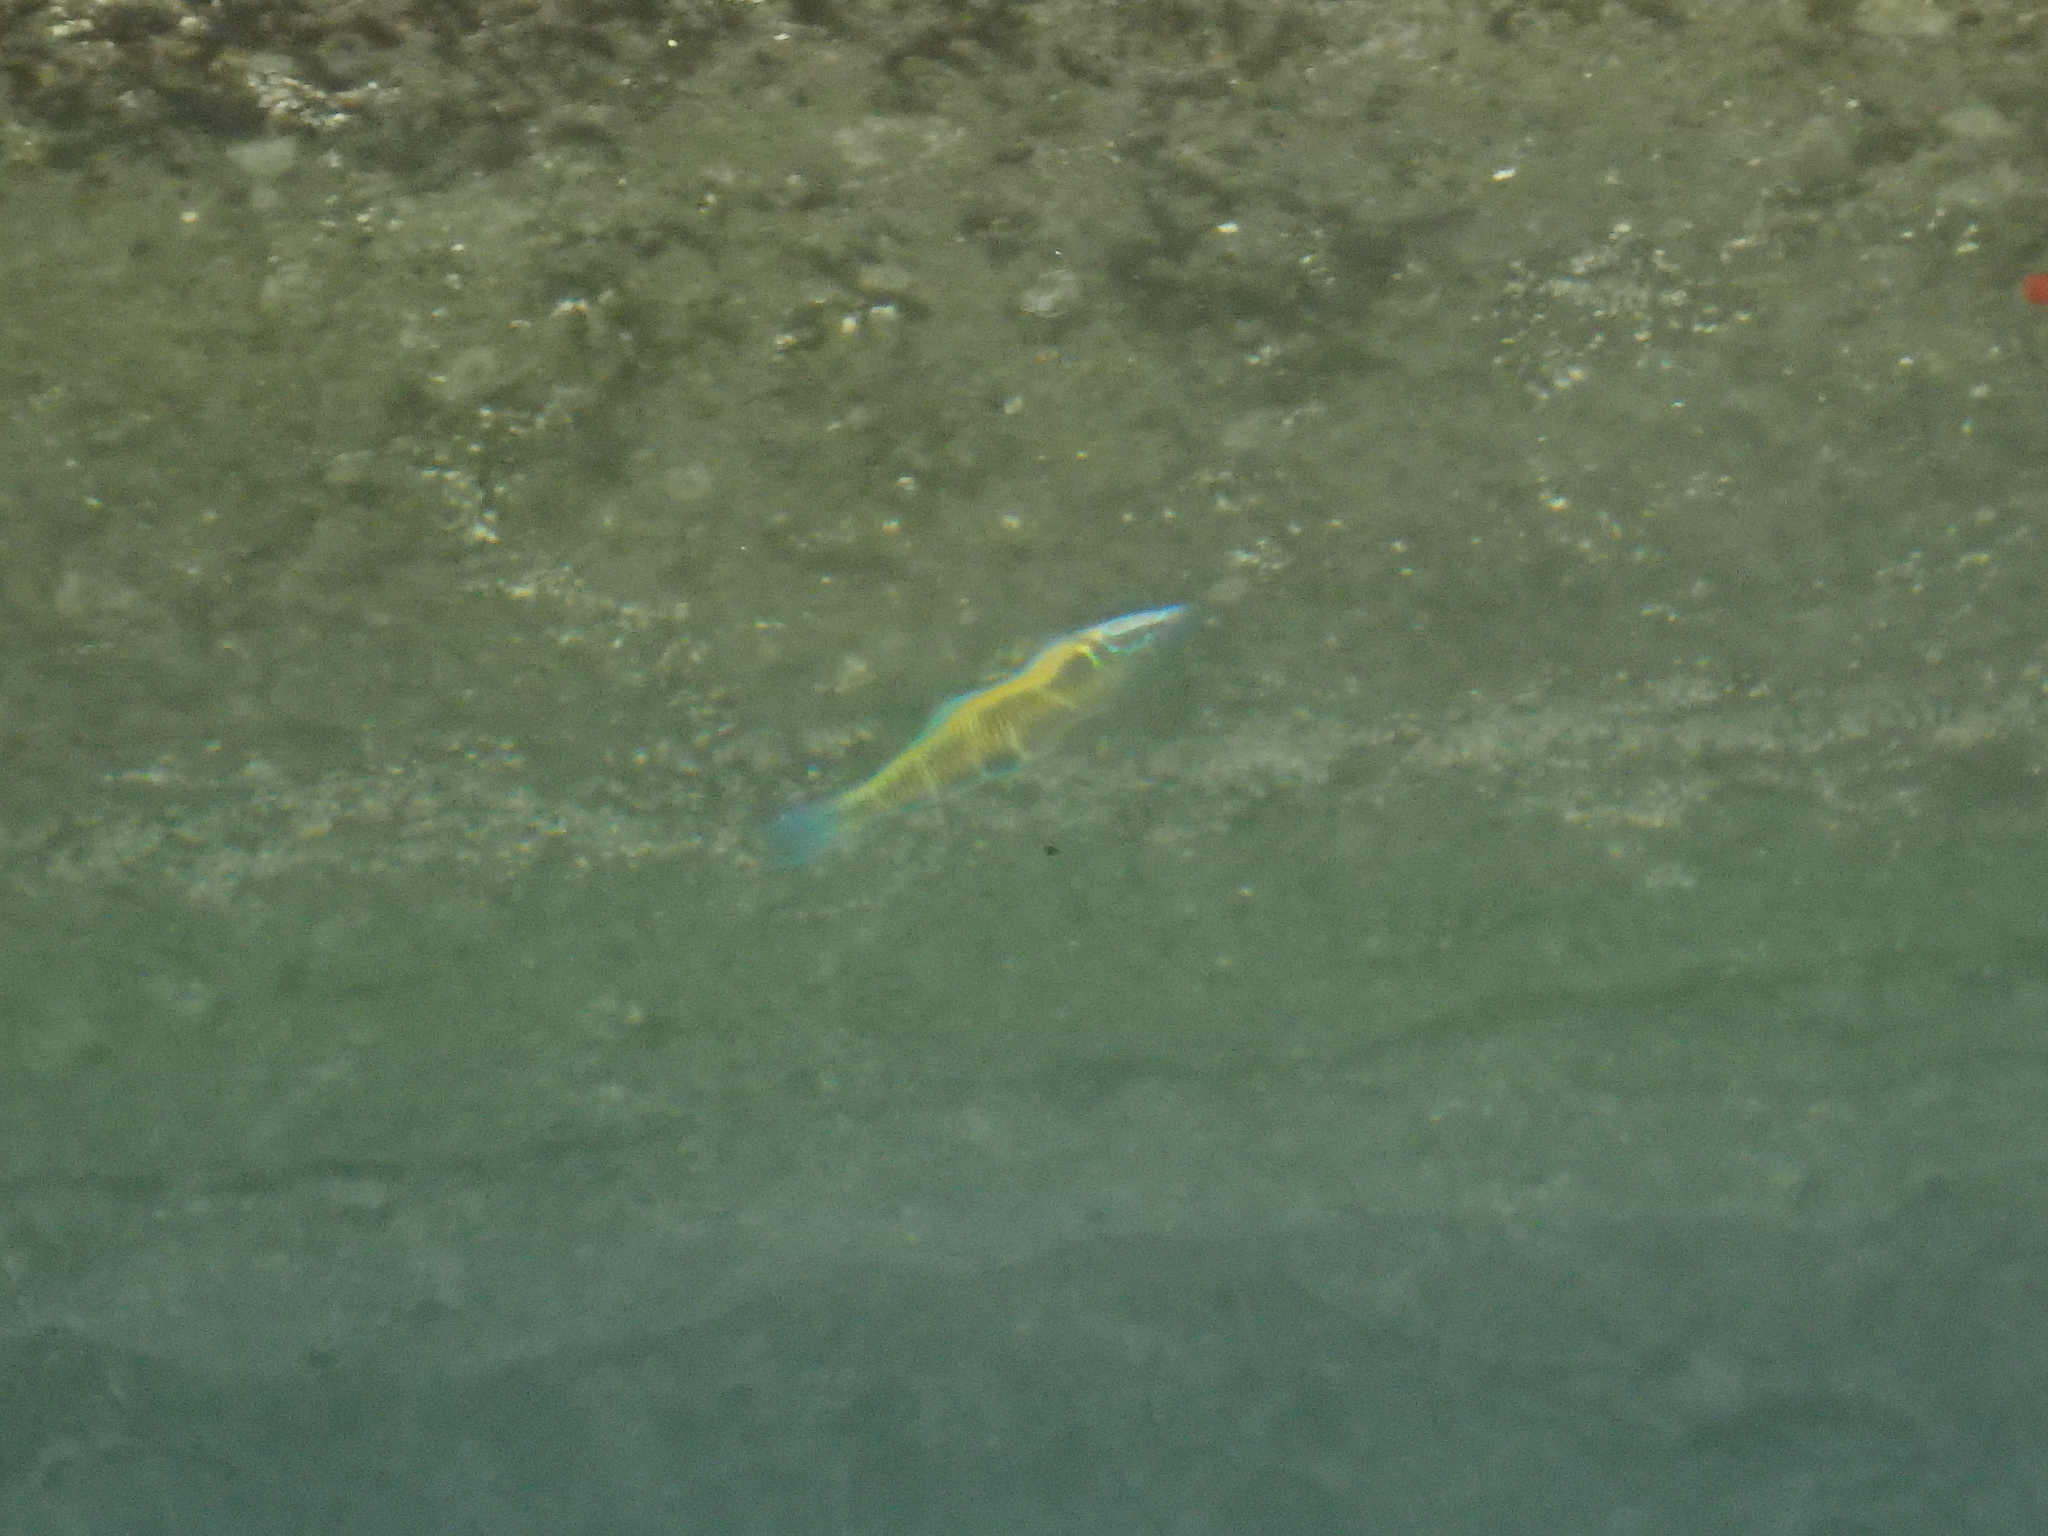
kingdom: Animalia
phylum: Chordata
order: Perciformes
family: Labridae
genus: Thalassoma
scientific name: Thalassoma pavo
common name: Ornate wrasse
